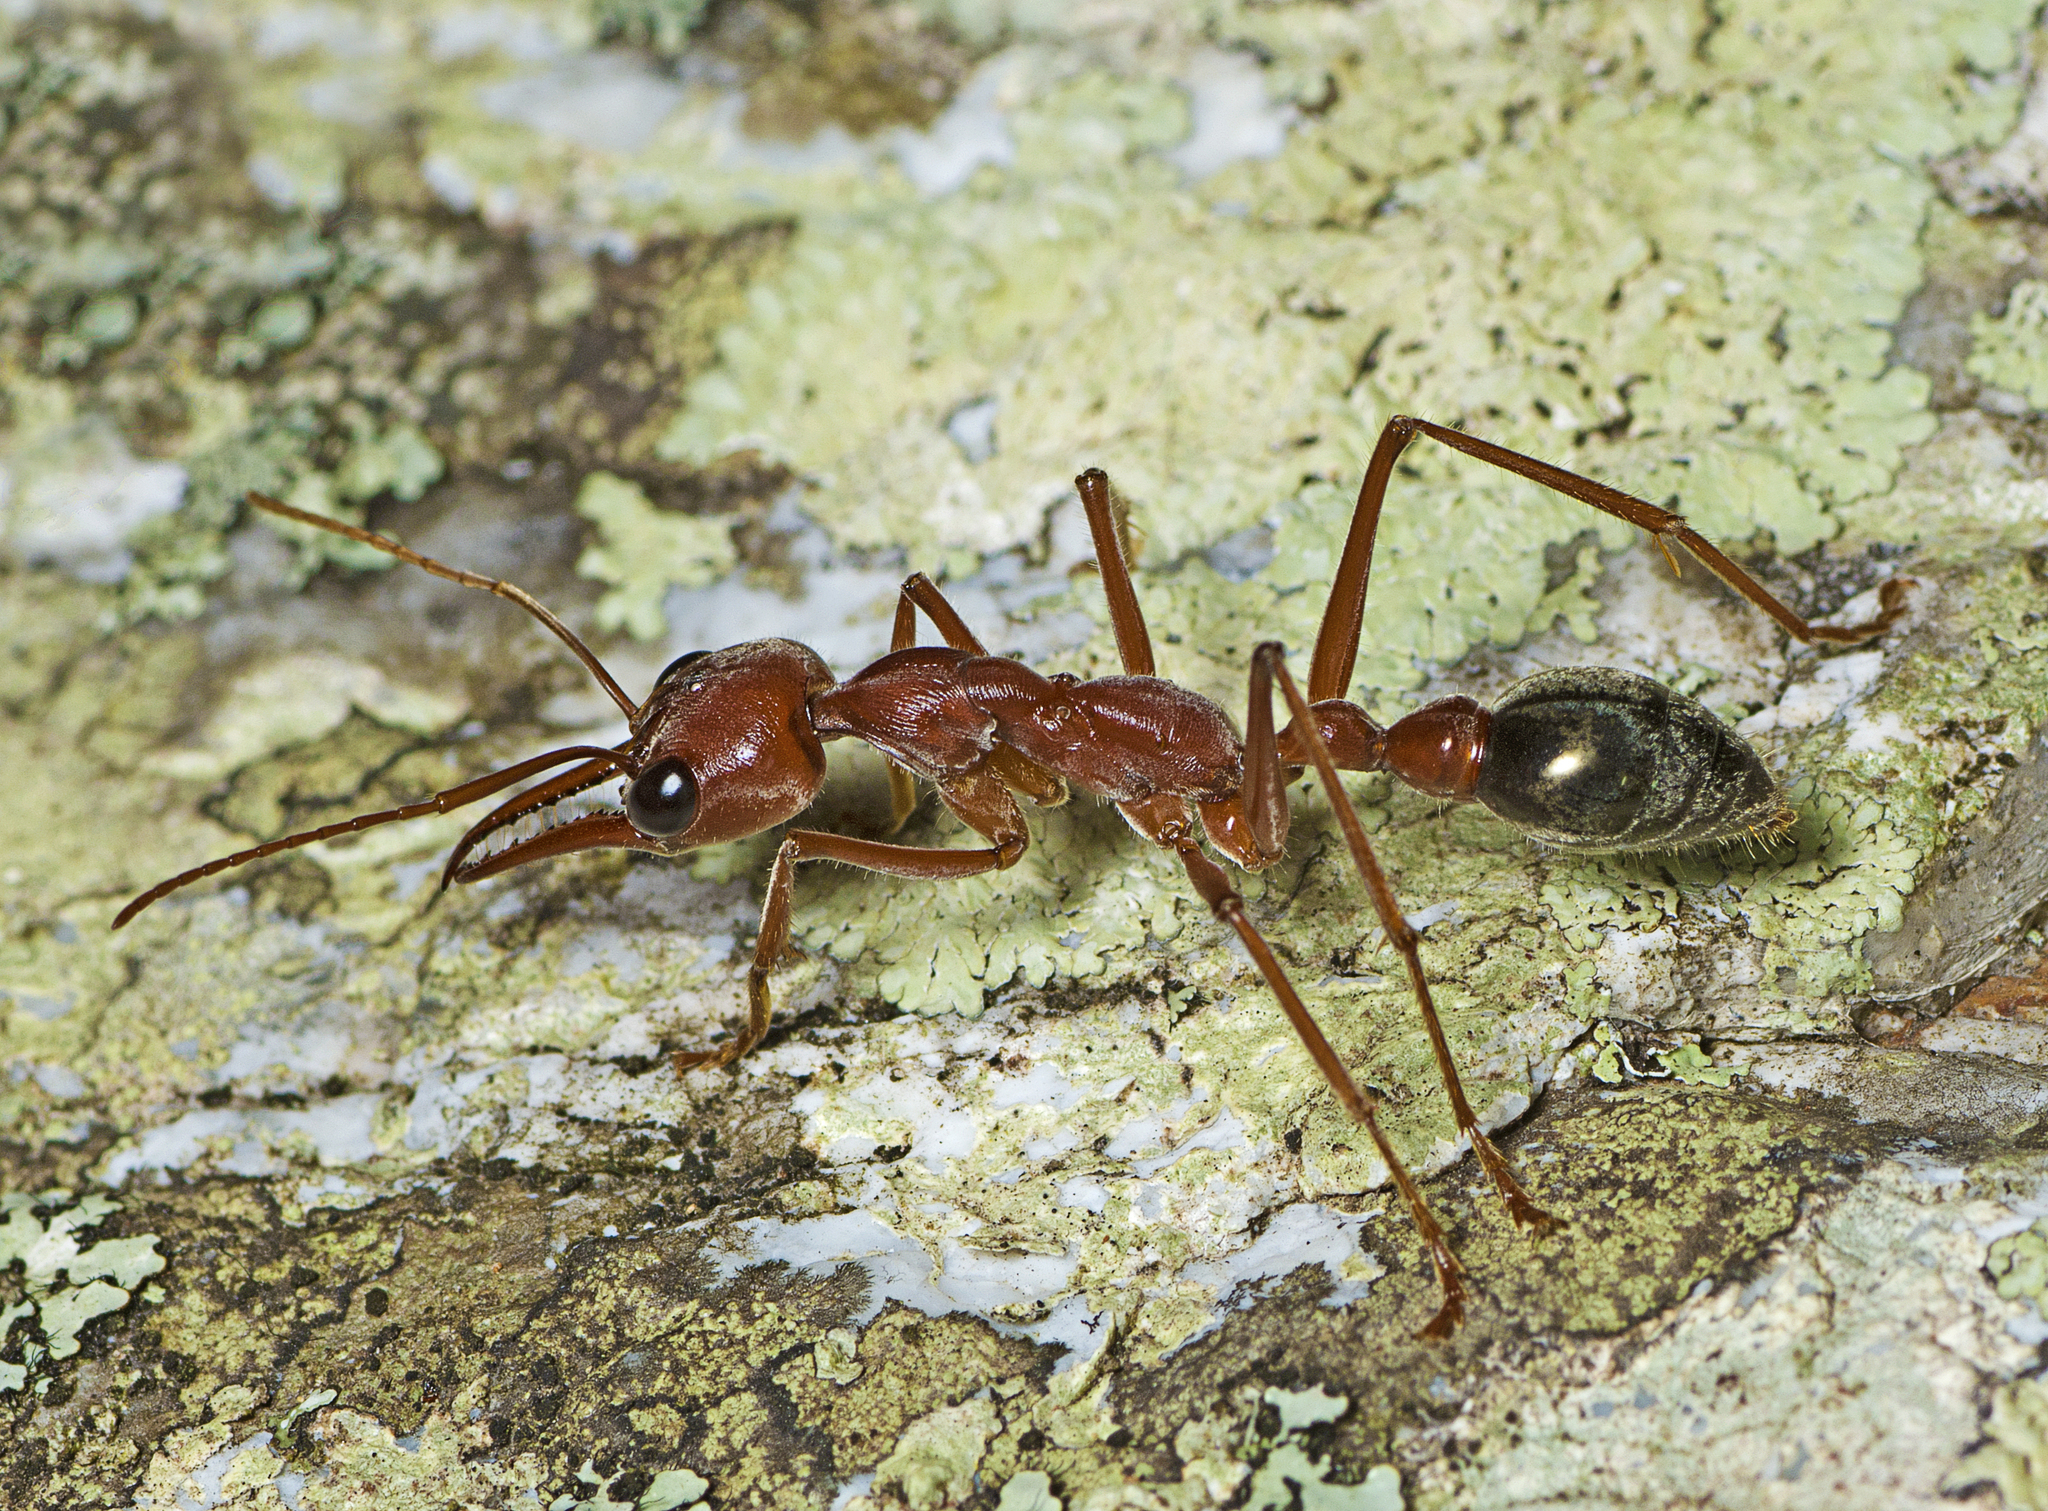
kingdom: Animalia
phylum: Arthropoda
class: Insecta
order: Hymenoptera
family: Formicidae
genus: Myrmecia
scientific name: Myrmecia brevinoda
